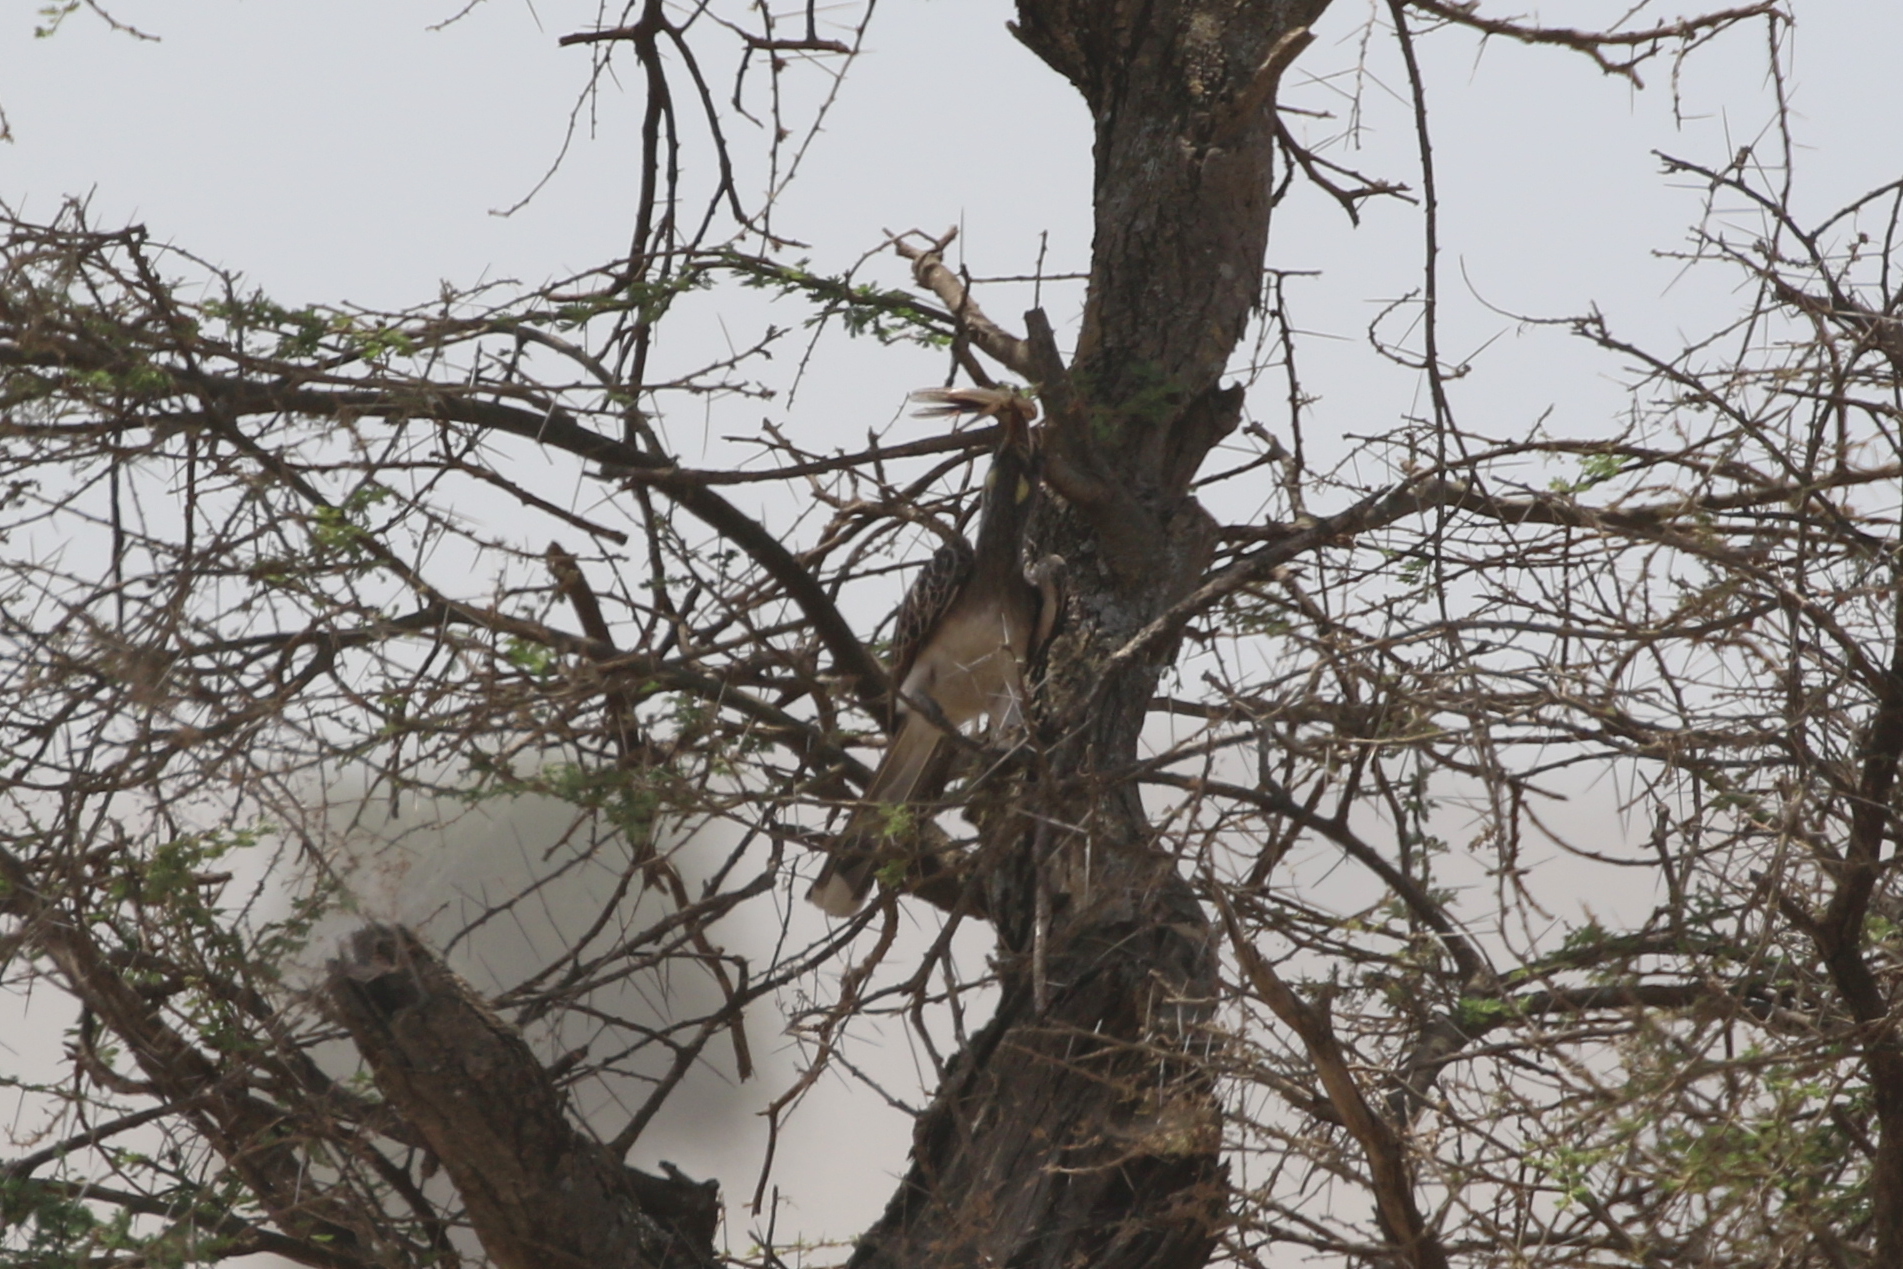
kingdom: Animalia
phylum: Chordata
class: Aves
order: Bucerotiformes
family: Bucerotidae
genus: Lophoceros
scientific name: Lophoceros nasutus
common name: African grey hornbill
